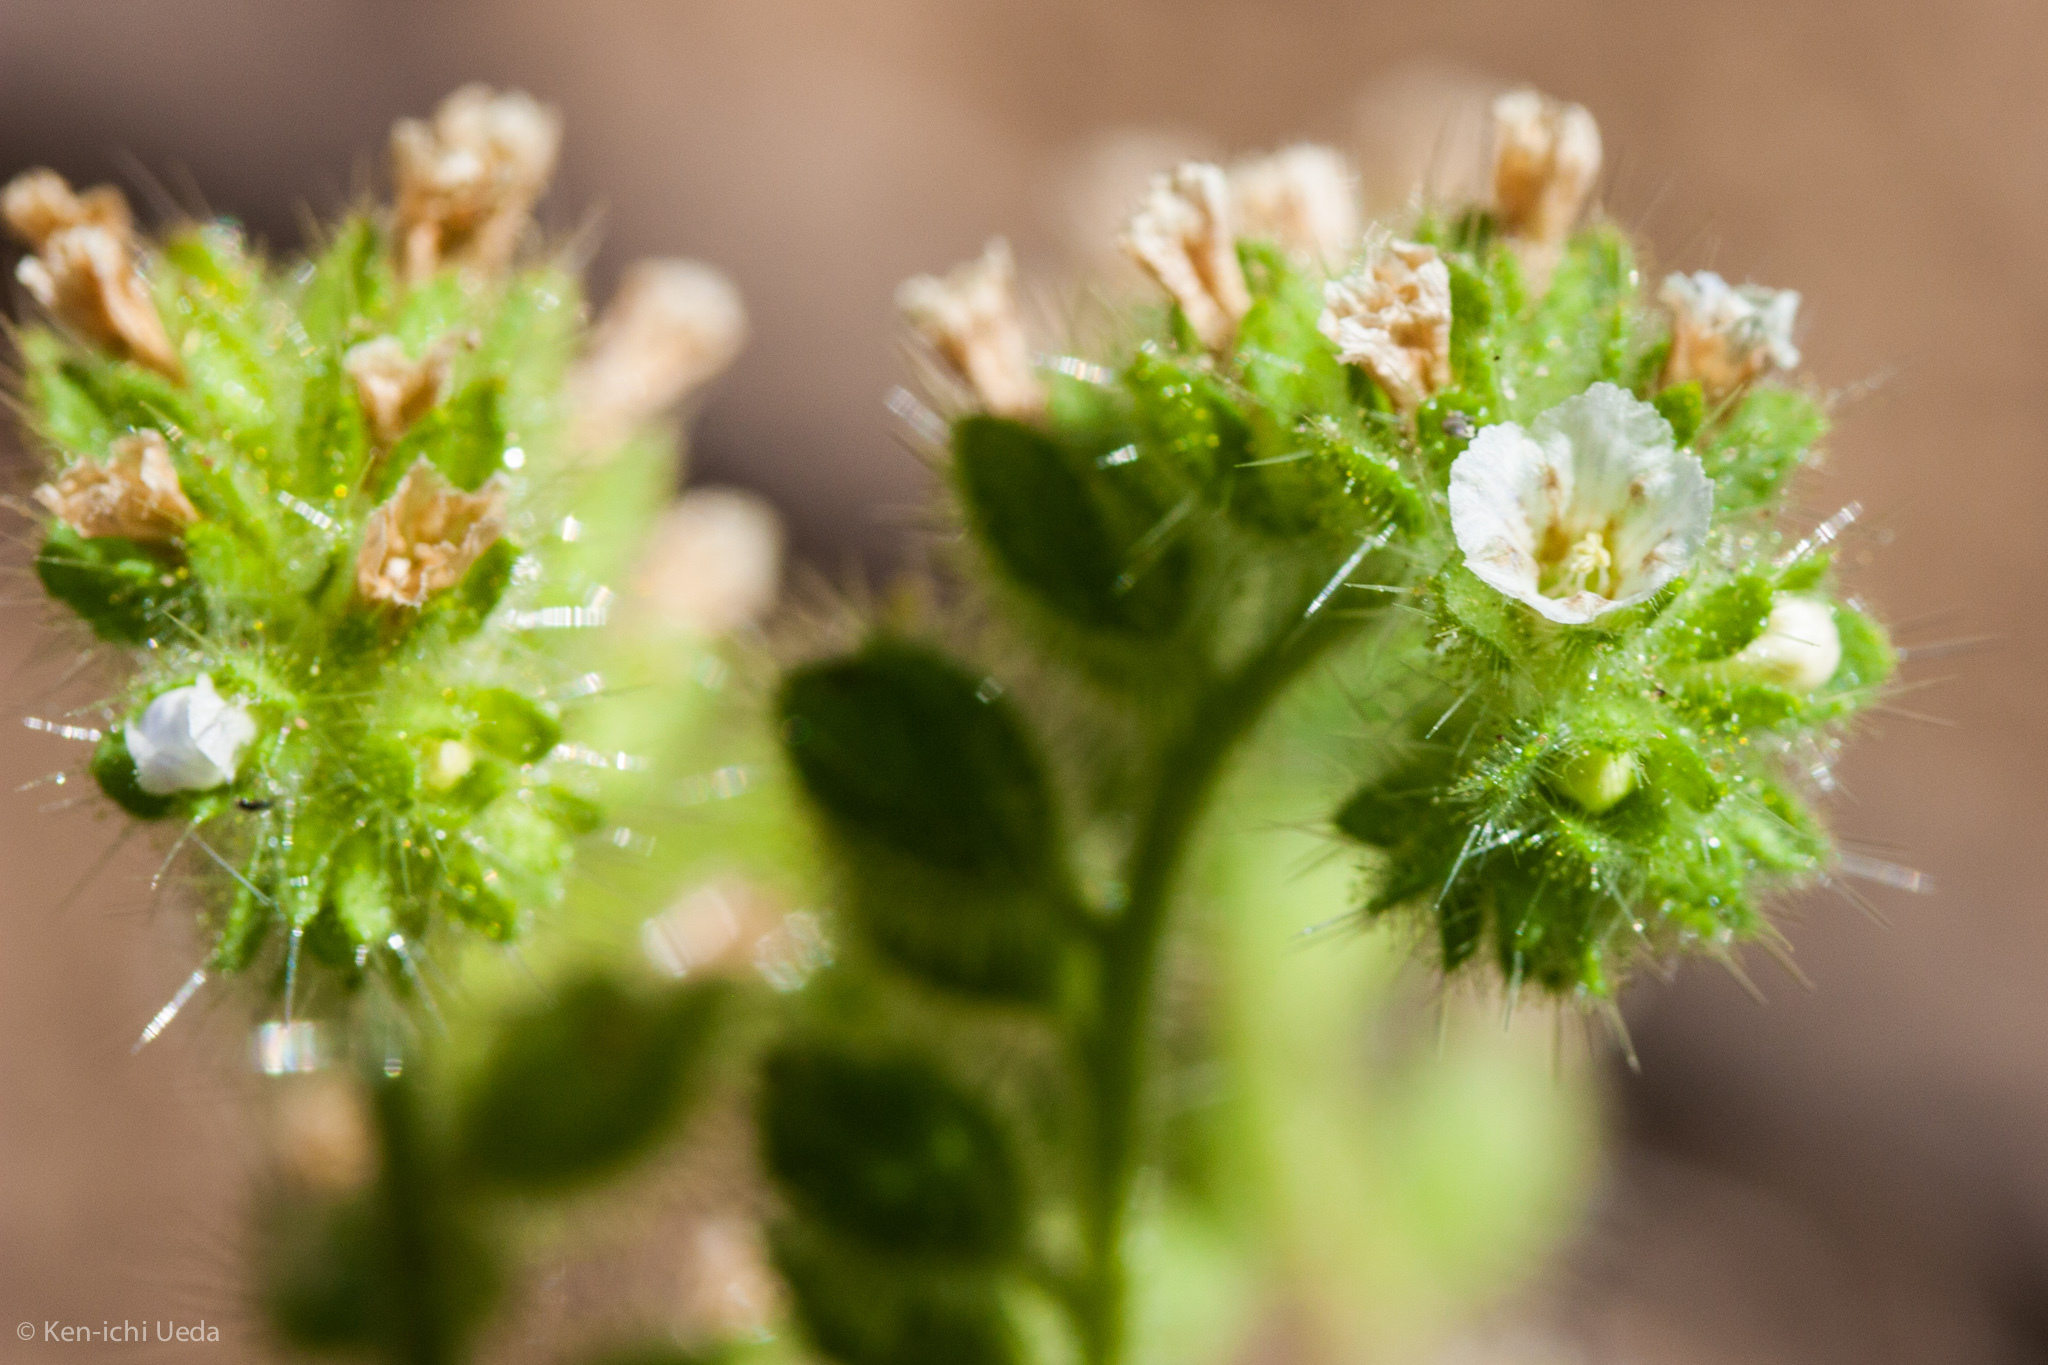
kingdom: Plantae
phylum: Tracheophyta
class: Magnoliopsida
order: Boraginales
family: Hydrophyllaceae
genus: Phacelia
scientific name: Phacelia rattanii
